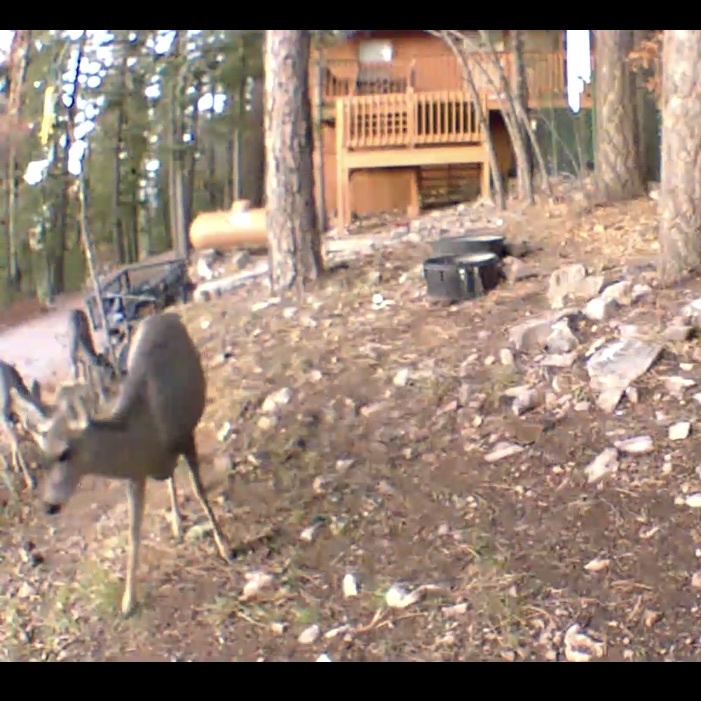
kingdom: Animalia
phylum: Chordata
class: Mammalia
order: Artiodactyla
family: Cervidae
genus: Odocoileus
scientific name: Odocoileus hemionus
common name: Mule deer
